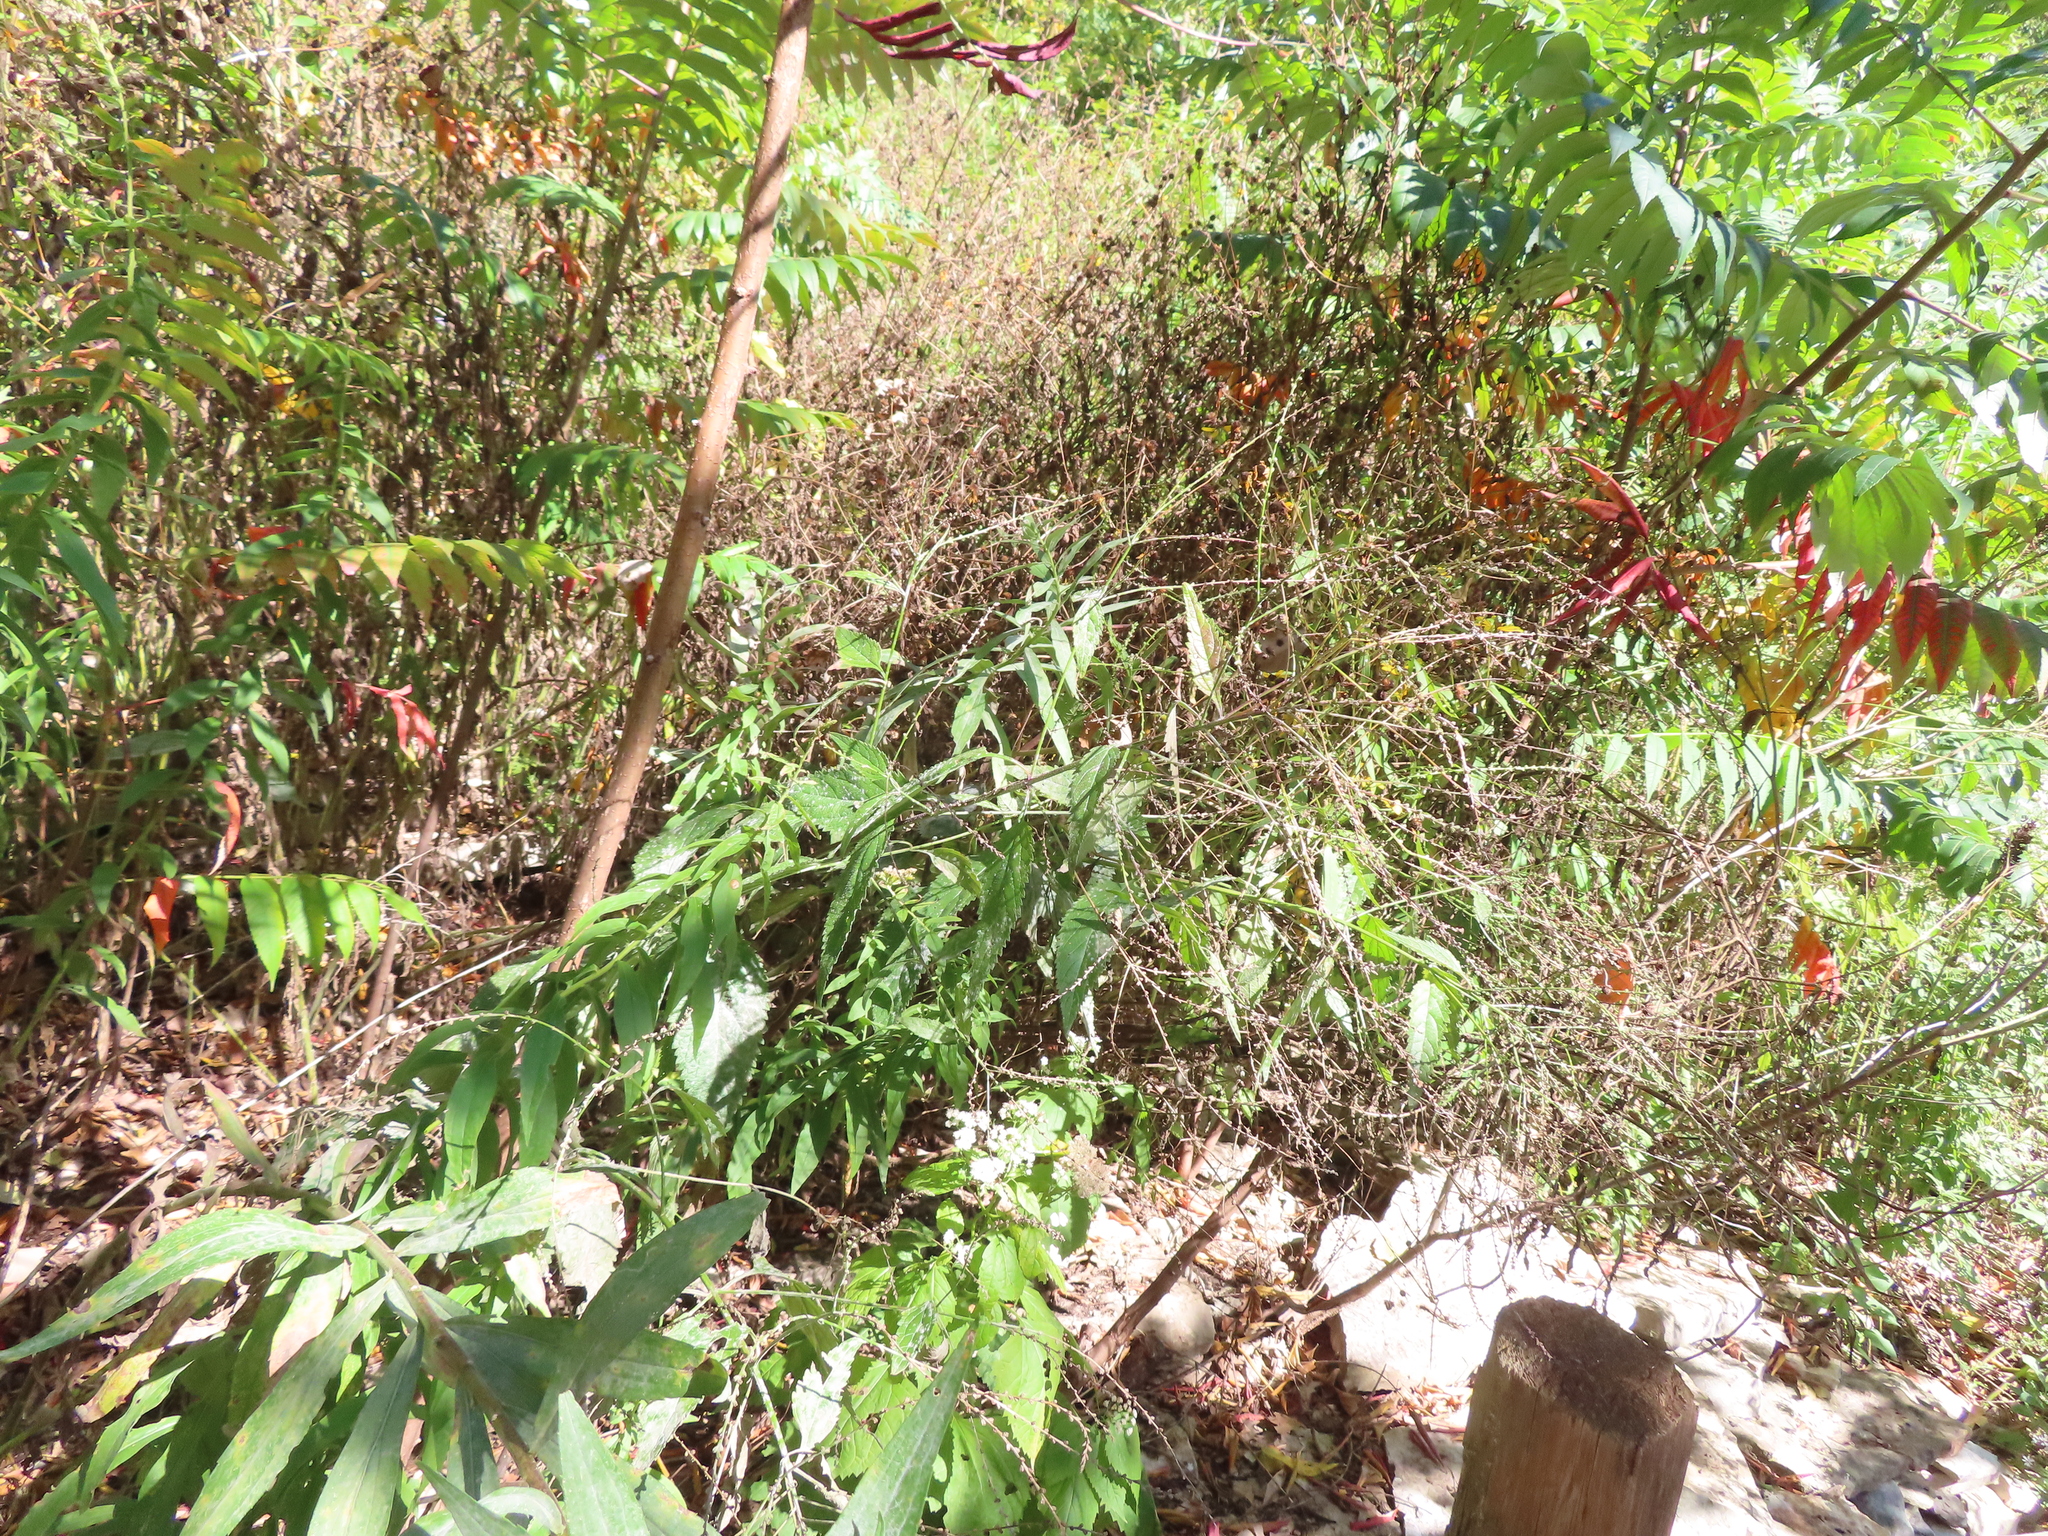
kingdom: Plantae
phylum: Tracheophyta
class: Magnoliopsida
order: Lamiales
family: Verbenaceae
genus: Verbena
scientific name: Verbena urticifolia
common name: Nettle-leaved vervain
